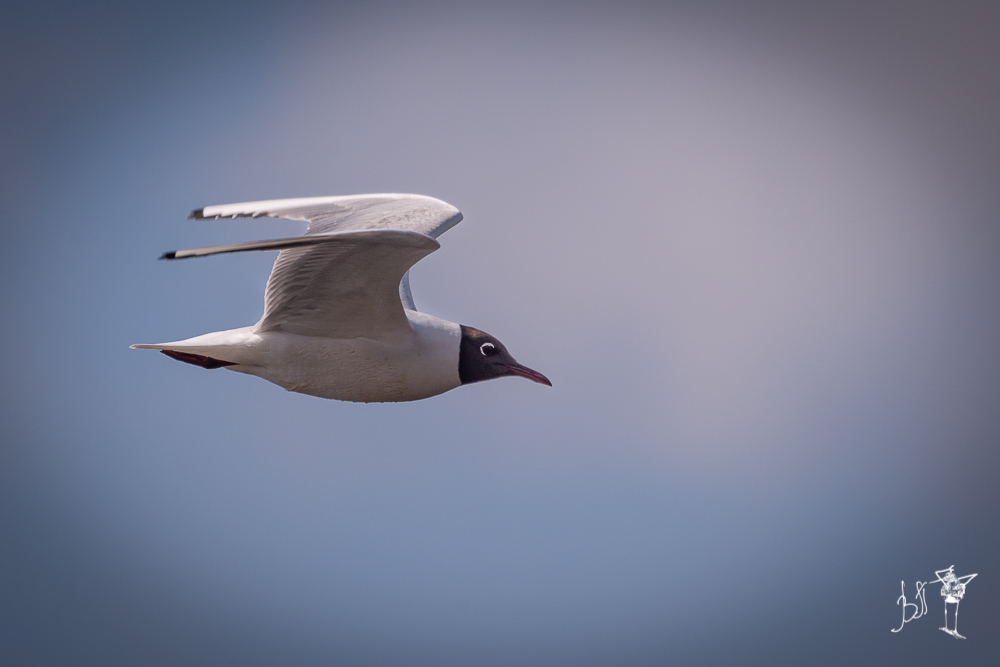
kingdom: Animalia
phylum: Chordata
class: Aves
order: Charadriiformes
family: Laridae
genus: Chroicocephalus
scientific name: Chroicocephalus ridibundus
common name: Black-headed gull
